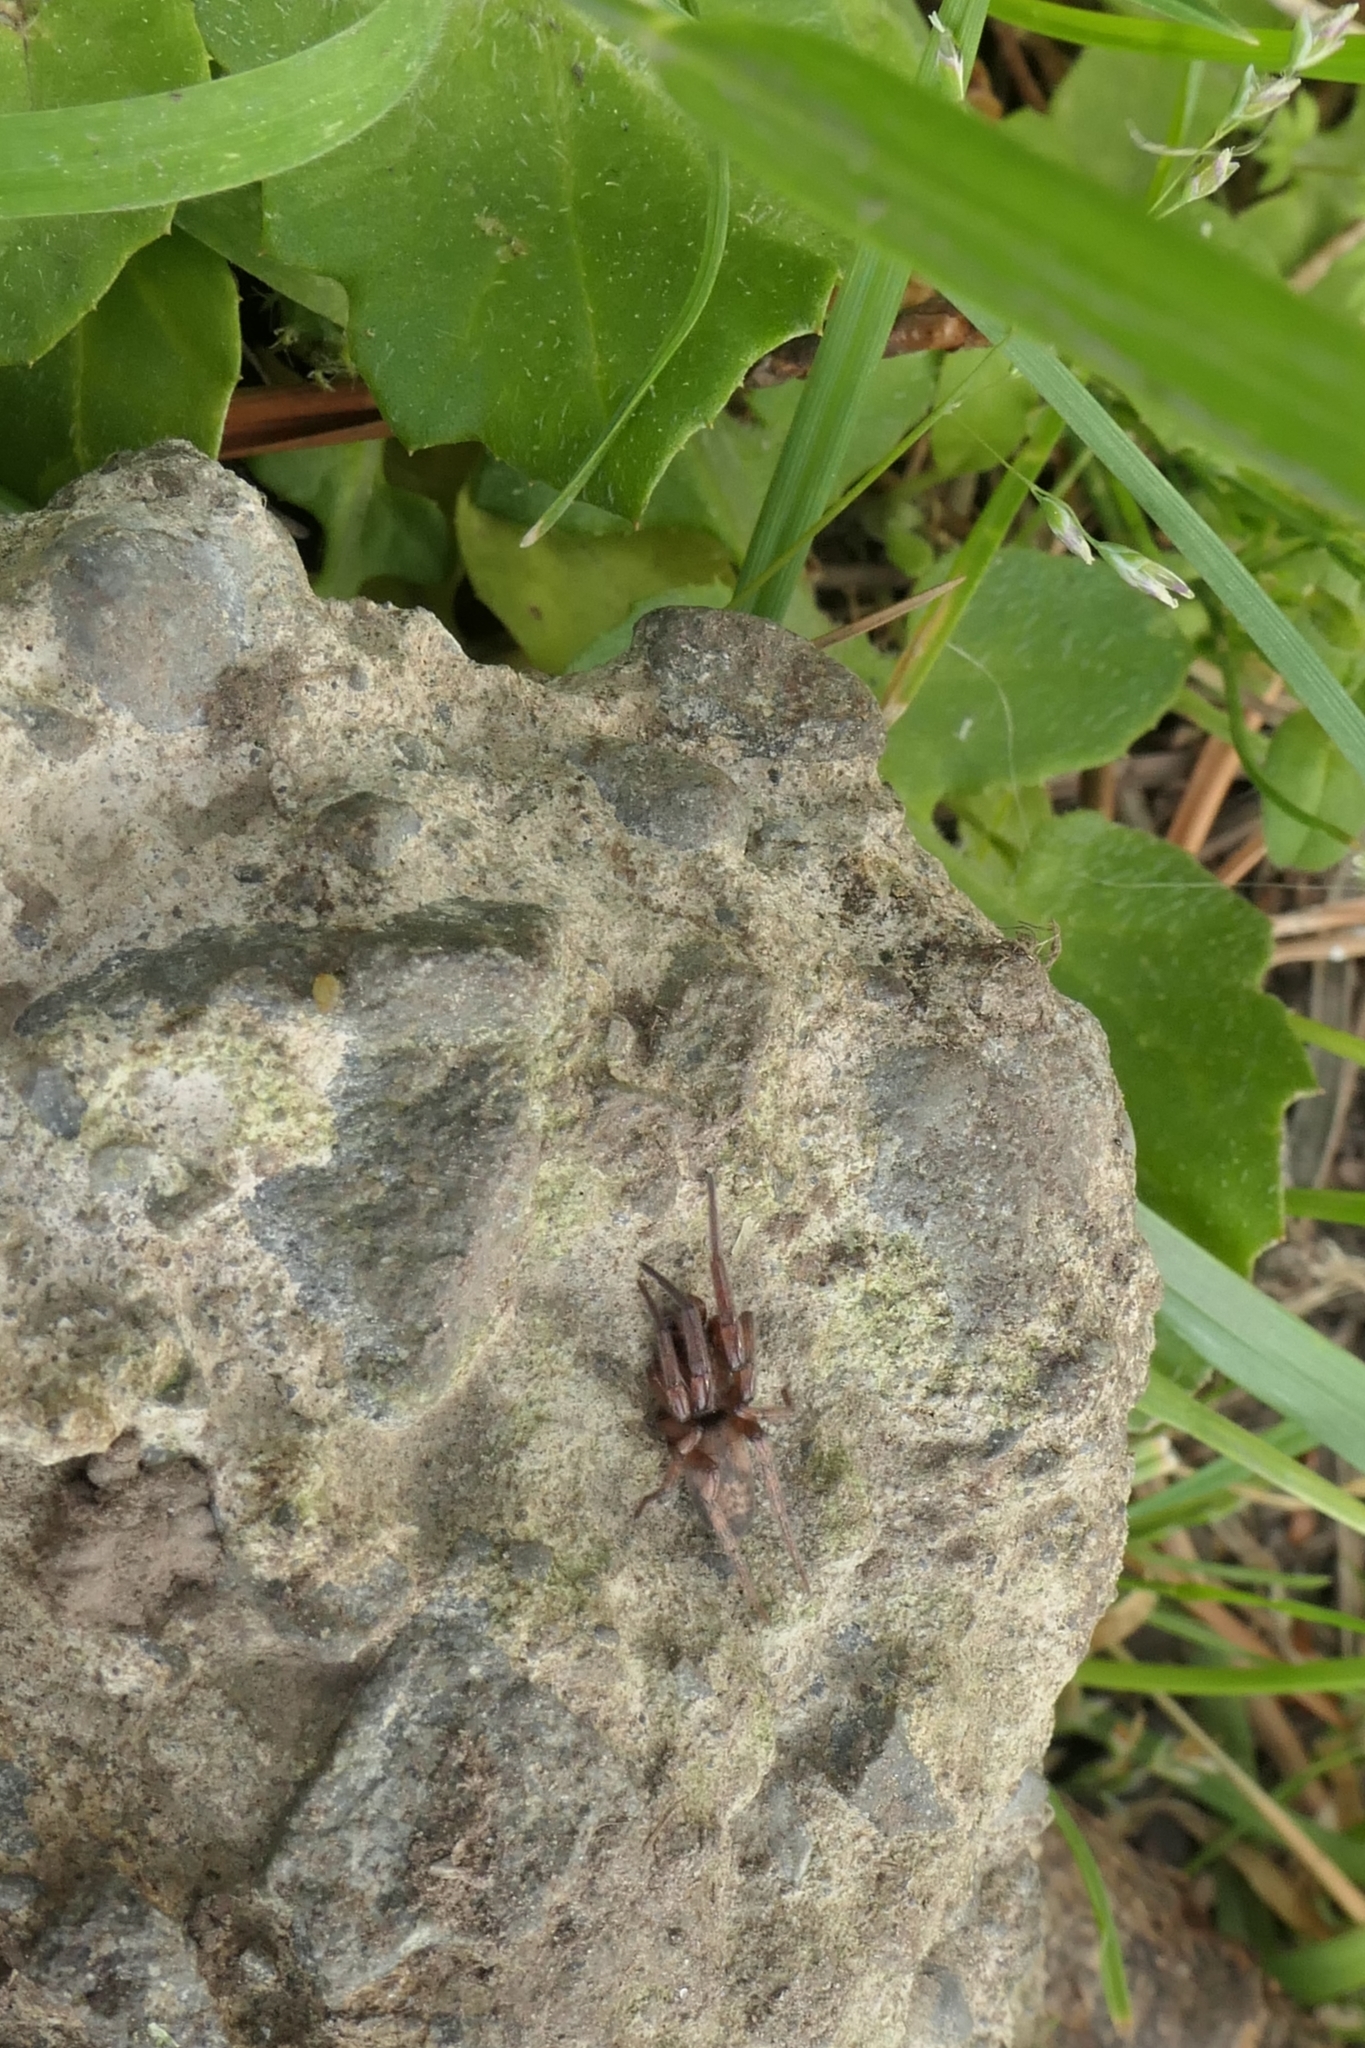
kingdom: Animalia
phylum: Arthropoda
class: Arachnida
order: Araneae
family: Gnaphosidae
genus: Intruda
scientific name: Intruda signata
